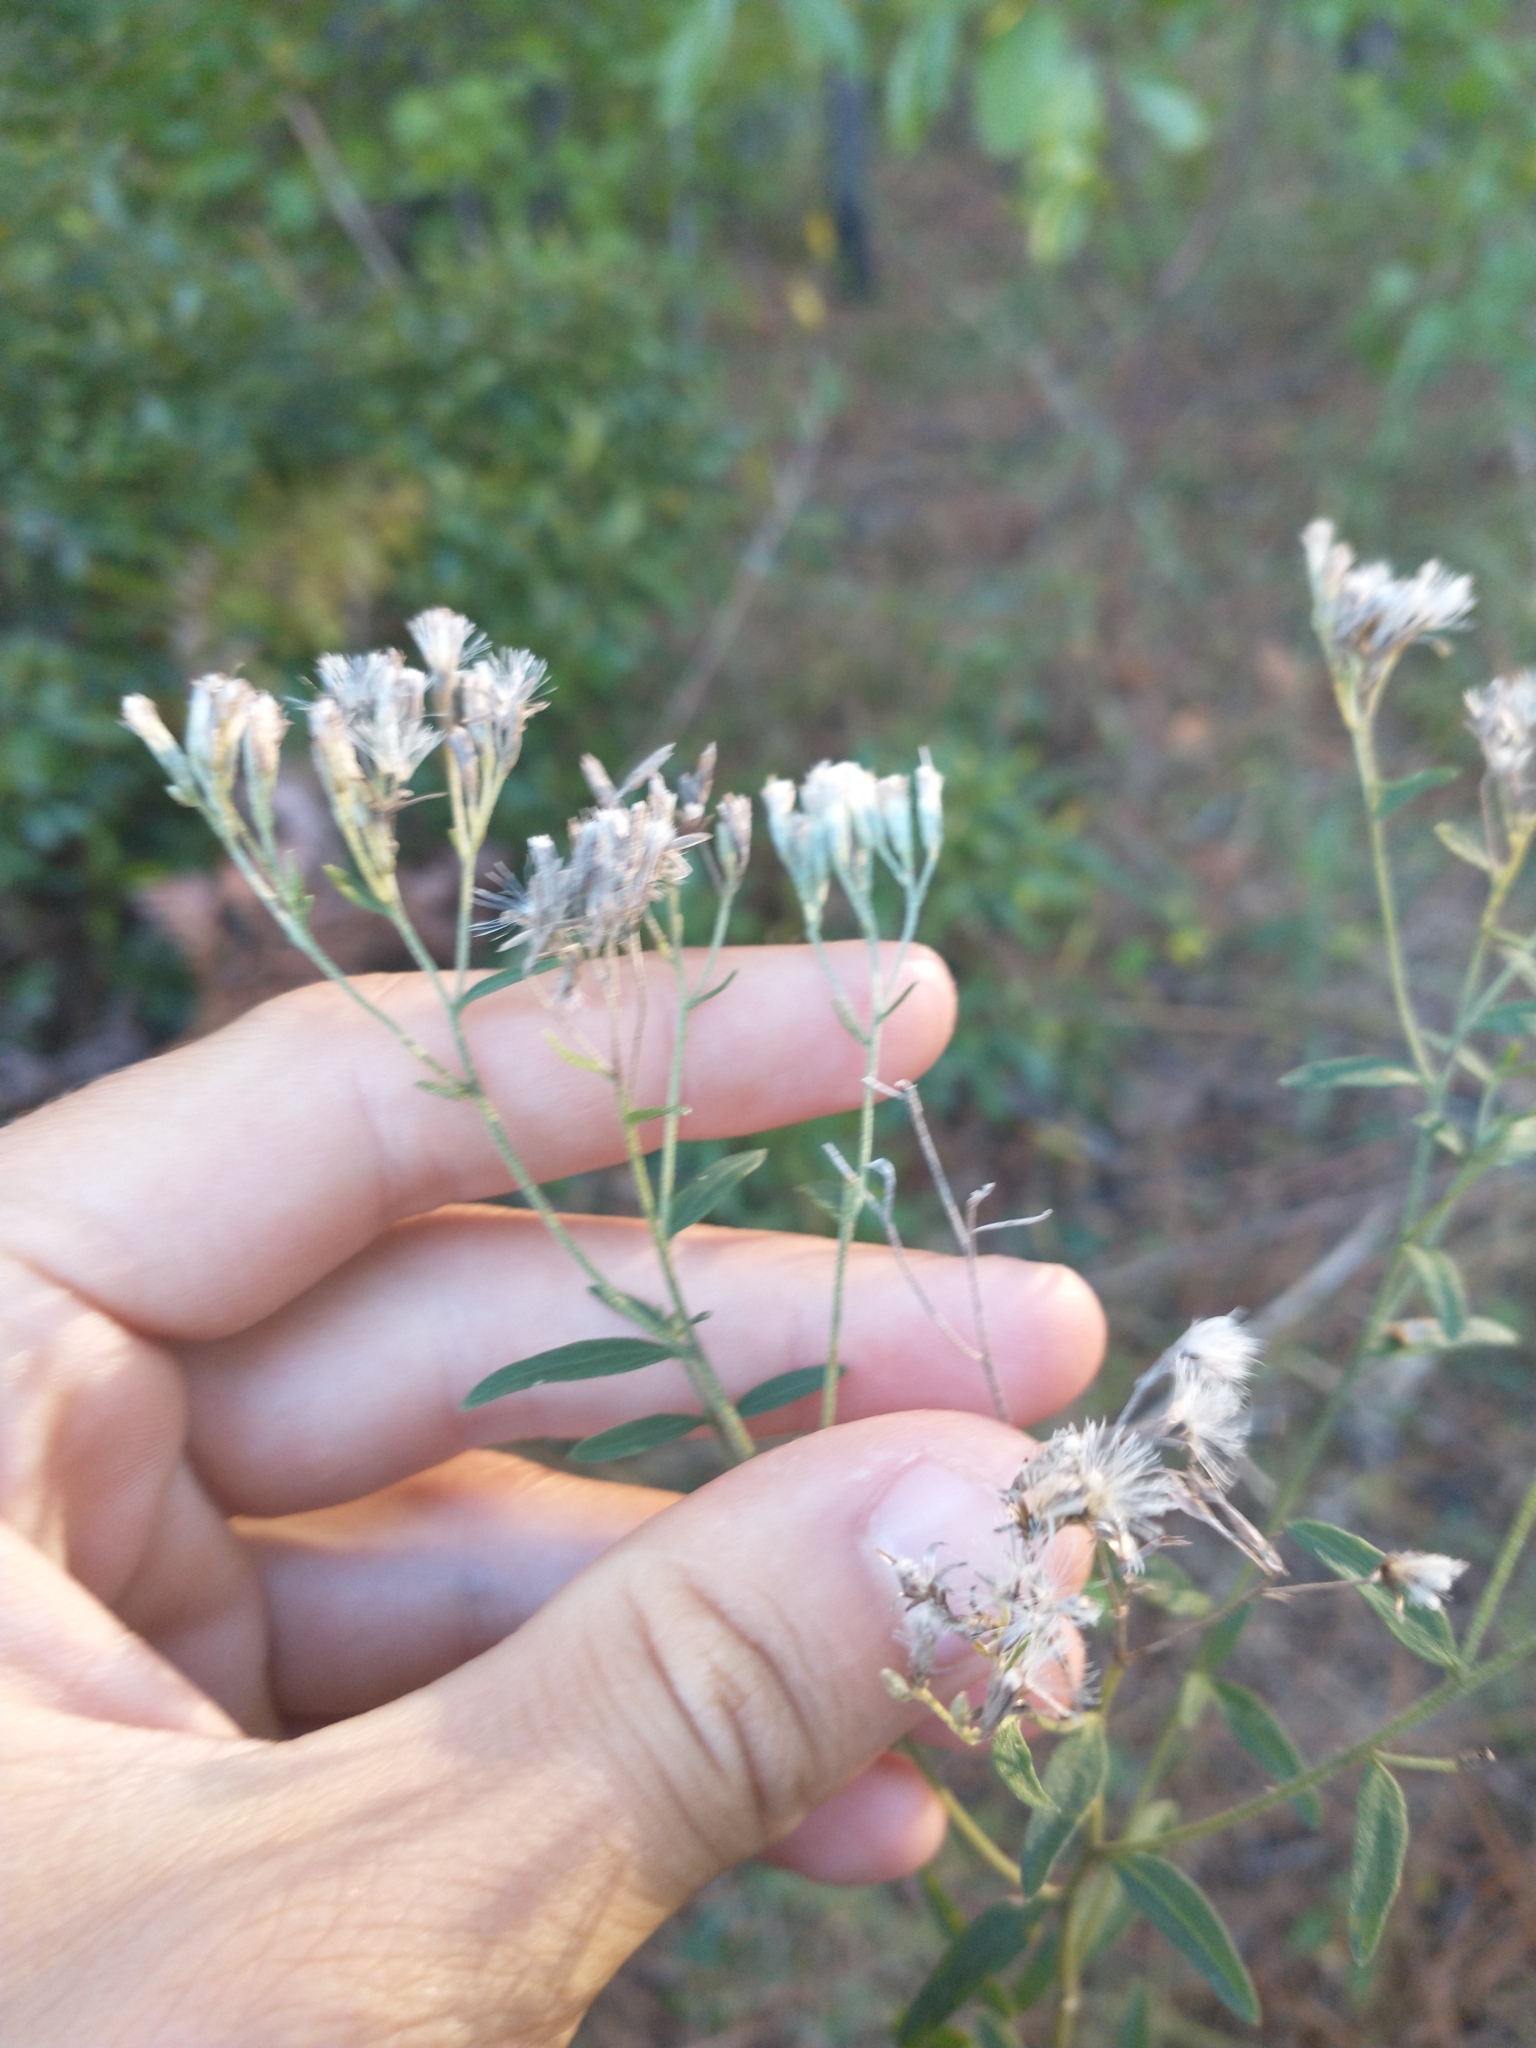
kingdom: Plantae
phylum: Tracheophyta
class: Magnoliopsida
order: Asterales
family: Asteraceae
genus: Eupatorium
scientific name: Eupatorium mohrii
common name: Mohr's thoroughwort
